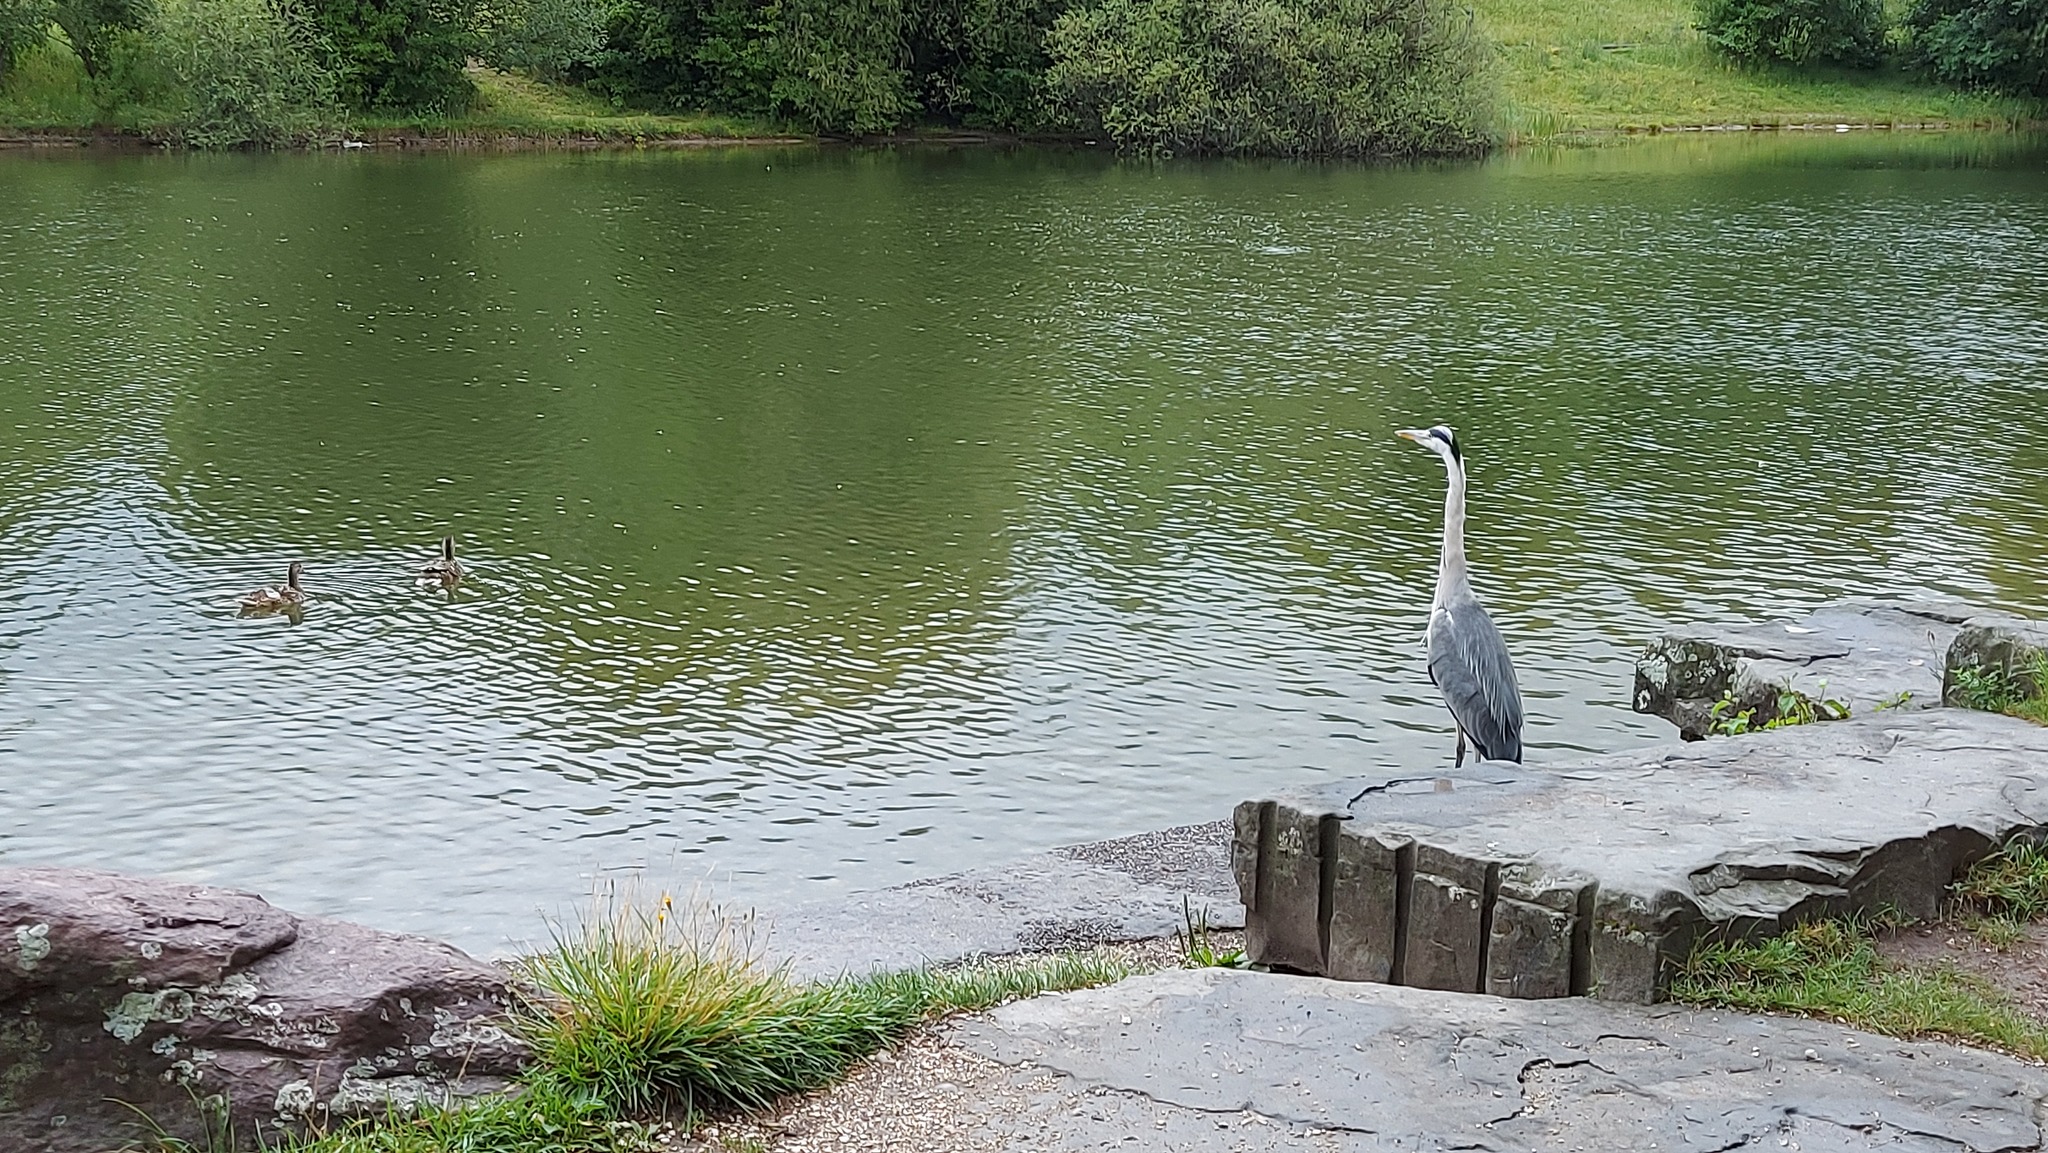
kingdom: Animalia
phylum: Chordata
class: Aves
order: Anseriformes
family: Anatidae
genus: Anas
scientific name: Anas platyrhynchos
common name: Mallard
